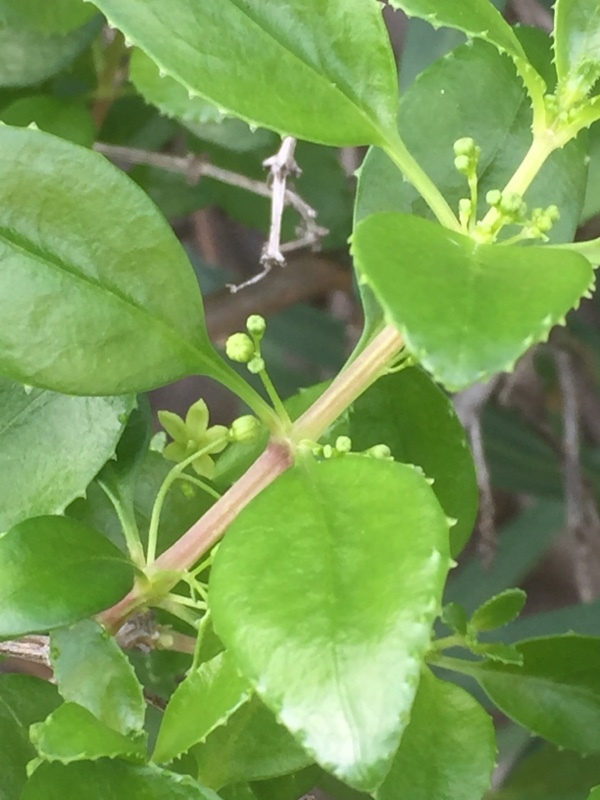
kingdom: Plantae
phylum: Tracheophyta
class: Magnoliopsida
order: Gentianales
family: Rubiaceae
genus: Rubia
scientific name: Rubia fruticosa
